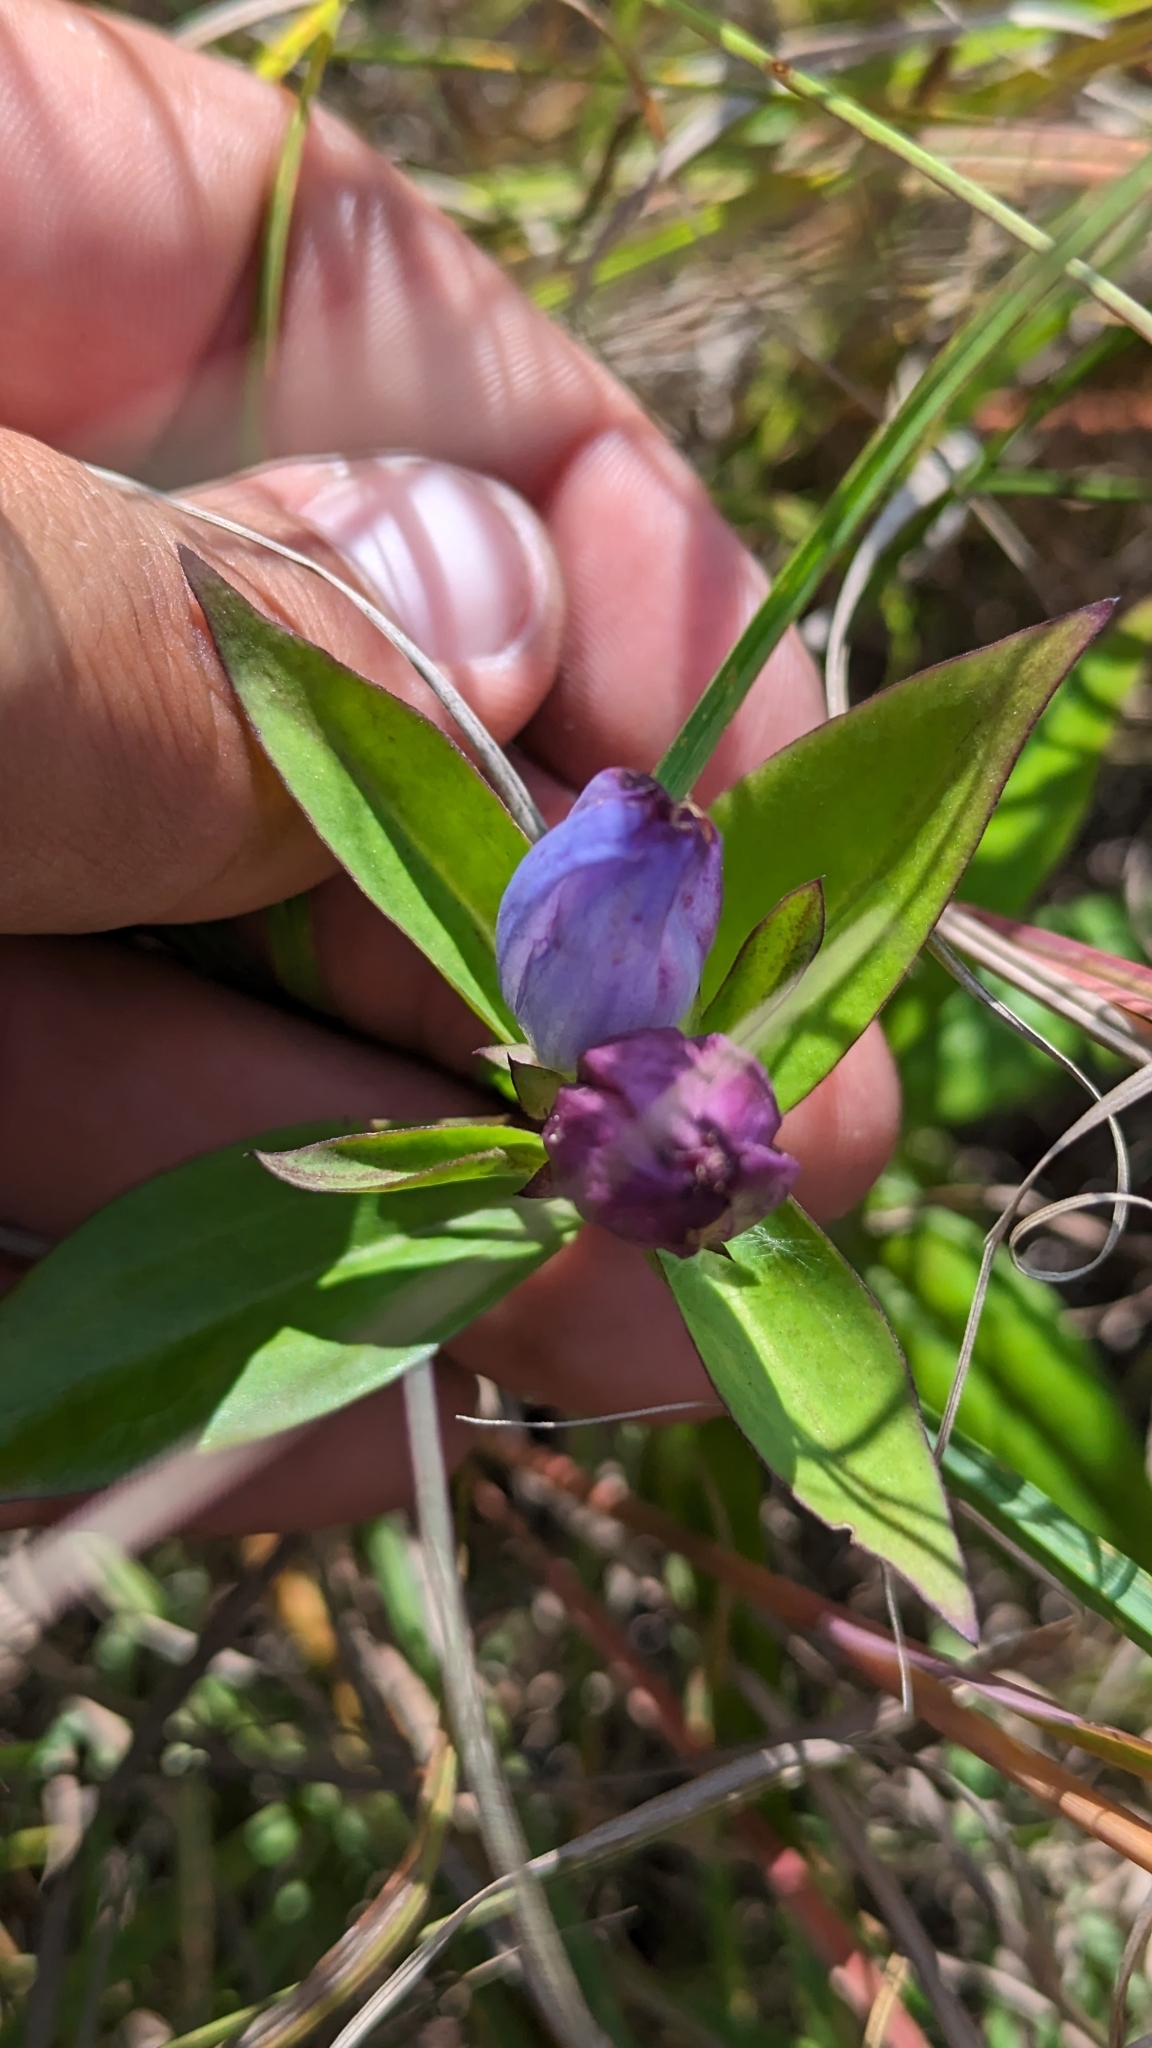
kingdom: Plantae
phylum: Tracheophyta
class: Magnoliopsida
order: Gentianales
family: Gentianaceae
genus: Gentiana
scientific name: Gentiana andrewsii
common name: Bottle gentian
